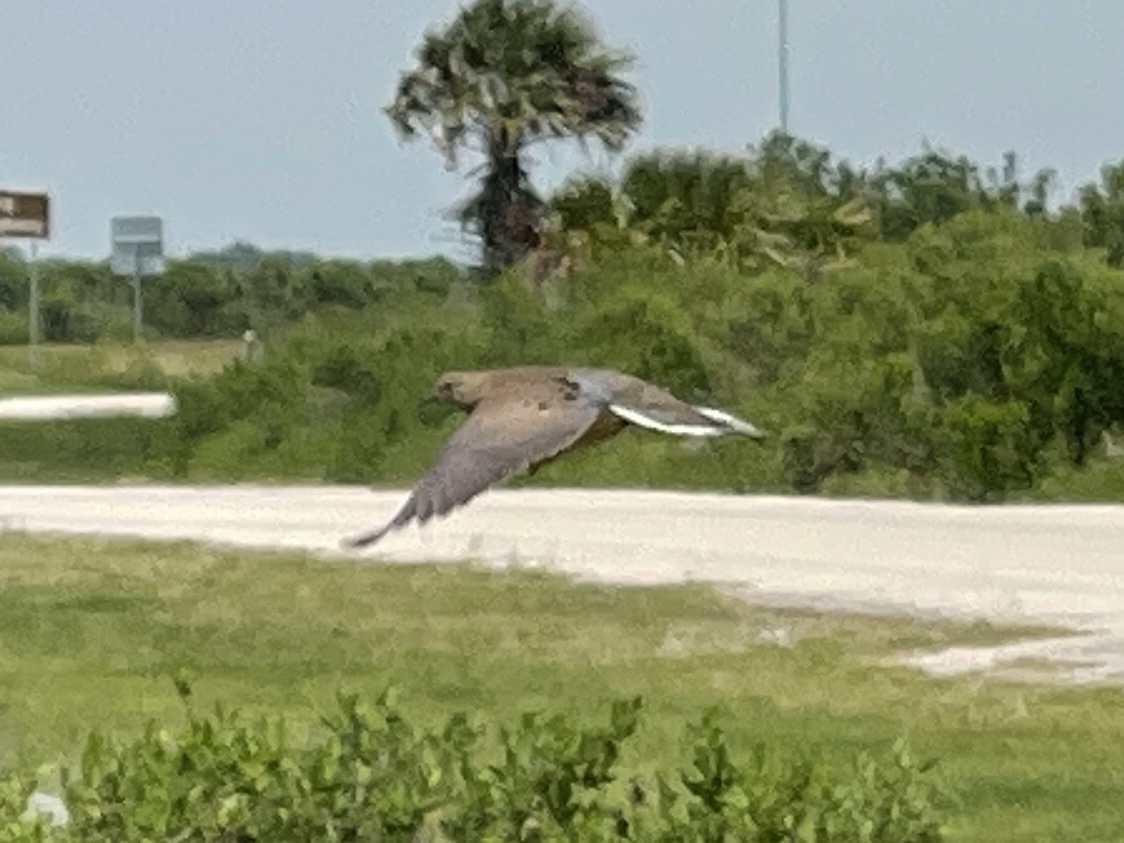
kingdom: Animalia
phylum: Chordata
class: Aves
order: Columbiformes
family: Columbidae
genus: Zenaida
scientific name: Zenaida macroura
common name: Mourning dove
